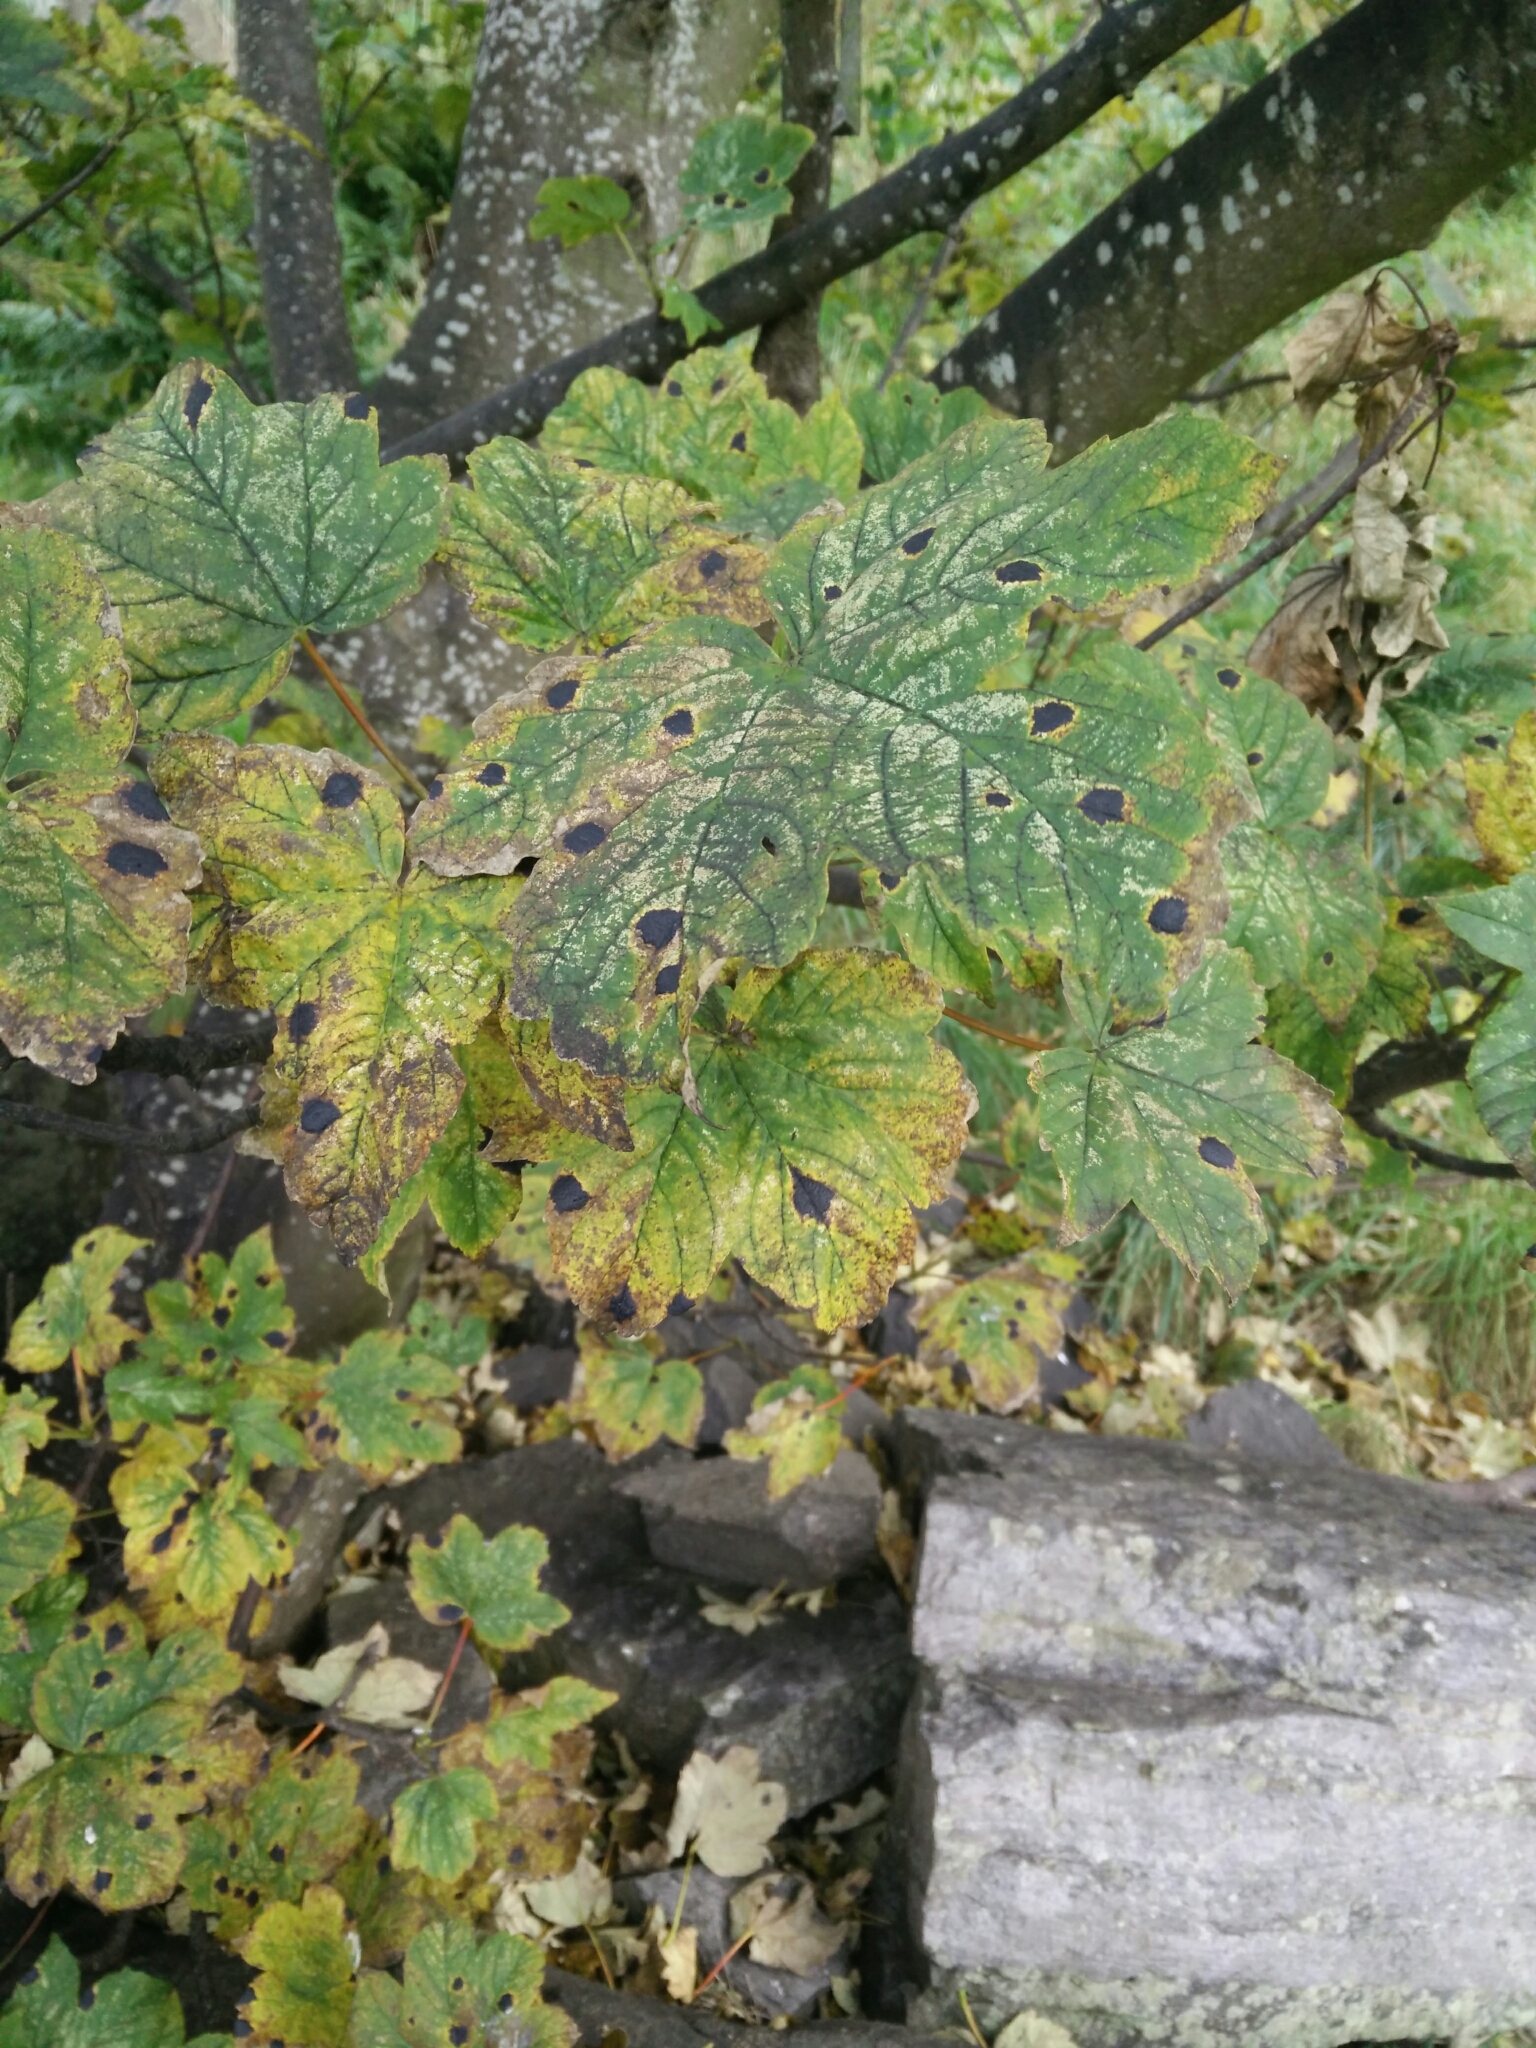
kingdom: Plantae
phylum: Tracheophyta
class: Magnoliopsida
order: Sapindales
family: Sapindaceae
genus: Acer
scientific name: Acer pseudoplatanus
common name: Sycamore
